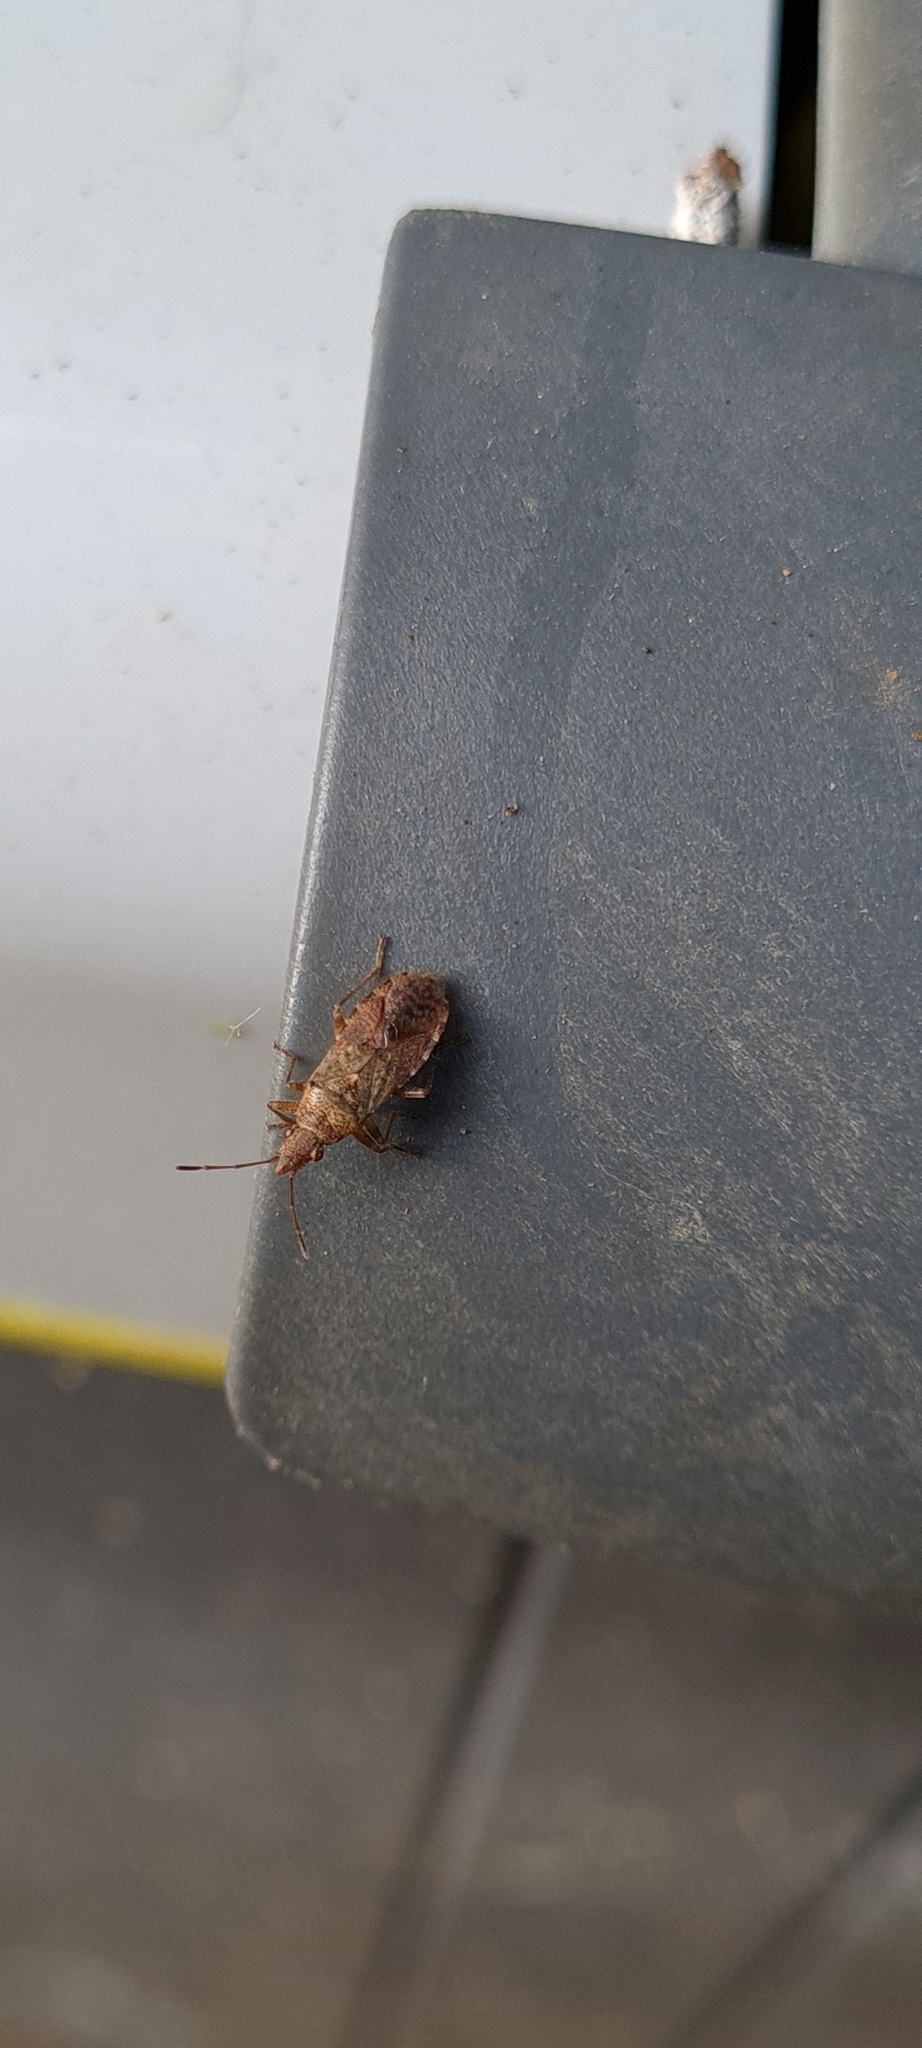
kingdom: Animalia
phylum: Arthropoda
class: Insecta
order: Hemiptera
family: Lygaeidae
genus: Belonochilus
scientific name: Belonochilus numenius
